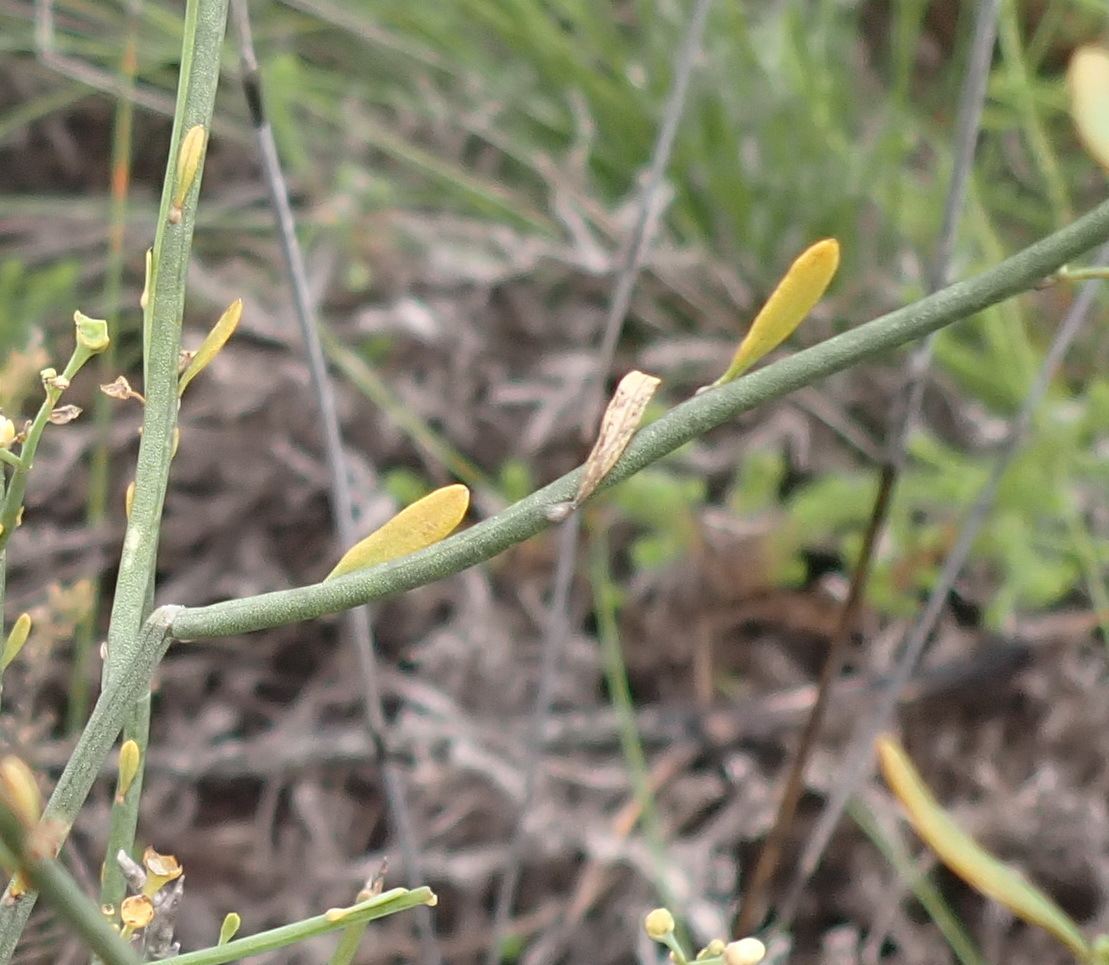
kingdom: Plantae
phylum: Tracheophyta
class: Magnoliopsida
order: Solanales
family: Montiniaceae
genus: Montinia
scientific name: Montinia caryophyllacea
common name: Wild clove-bush
